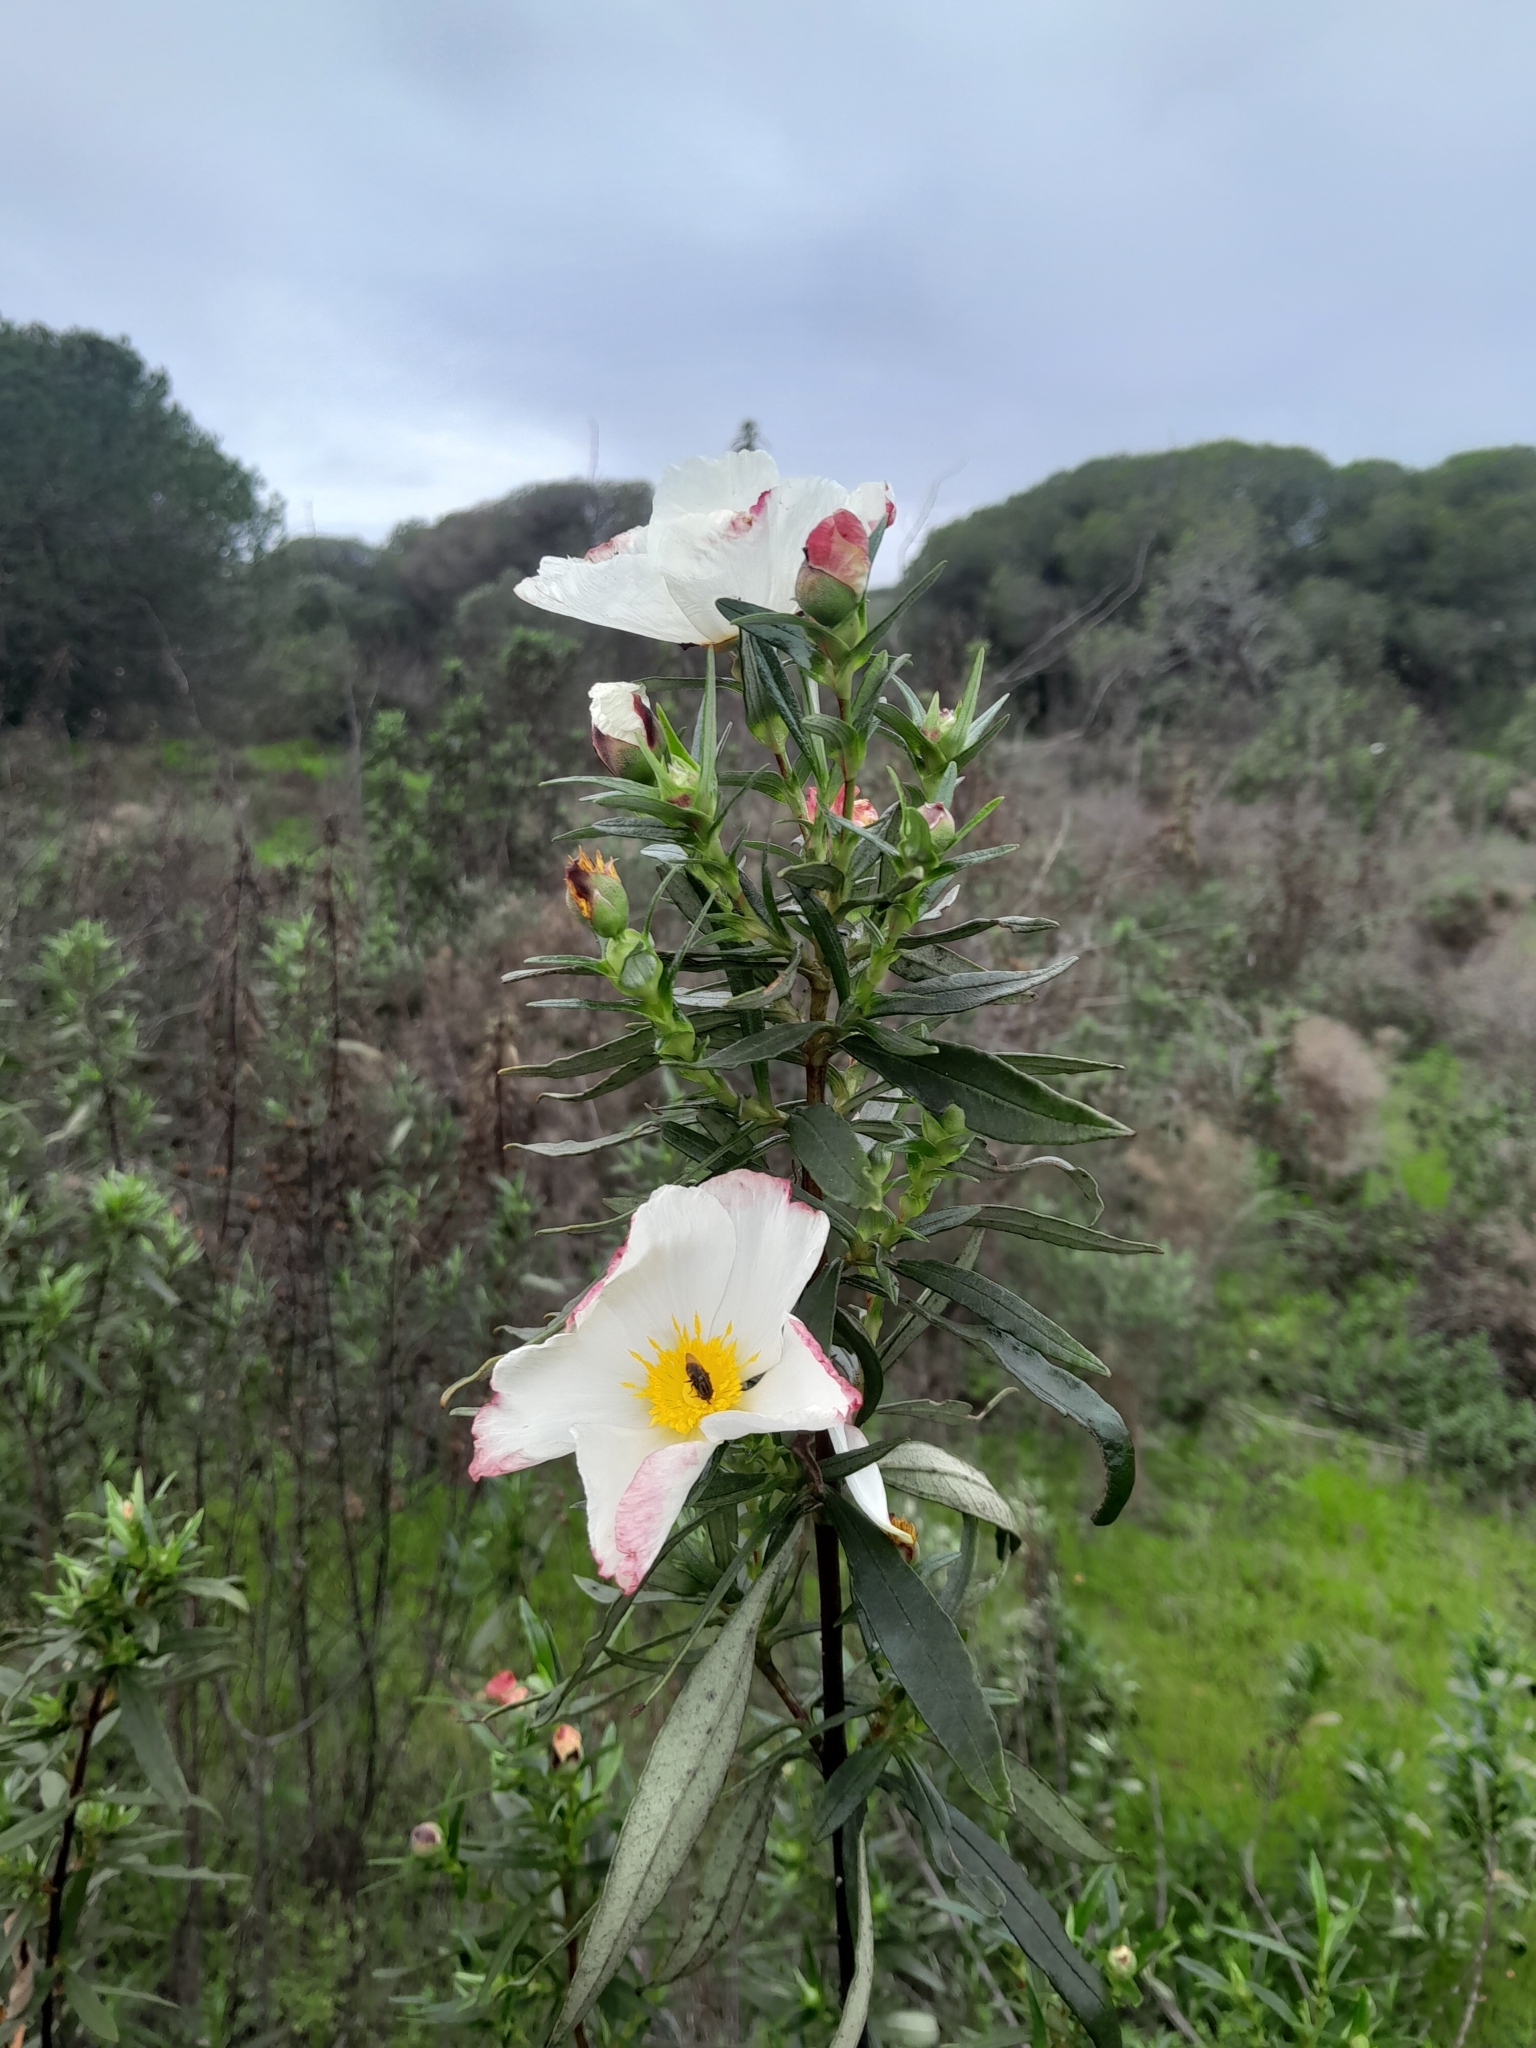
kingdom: Plantae
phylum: Tracheophyta
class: Magnoliopsida
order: Malvales
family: Cistaceae
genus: Cistus
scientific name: Cistus ladanifer
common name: Common gum cistus
